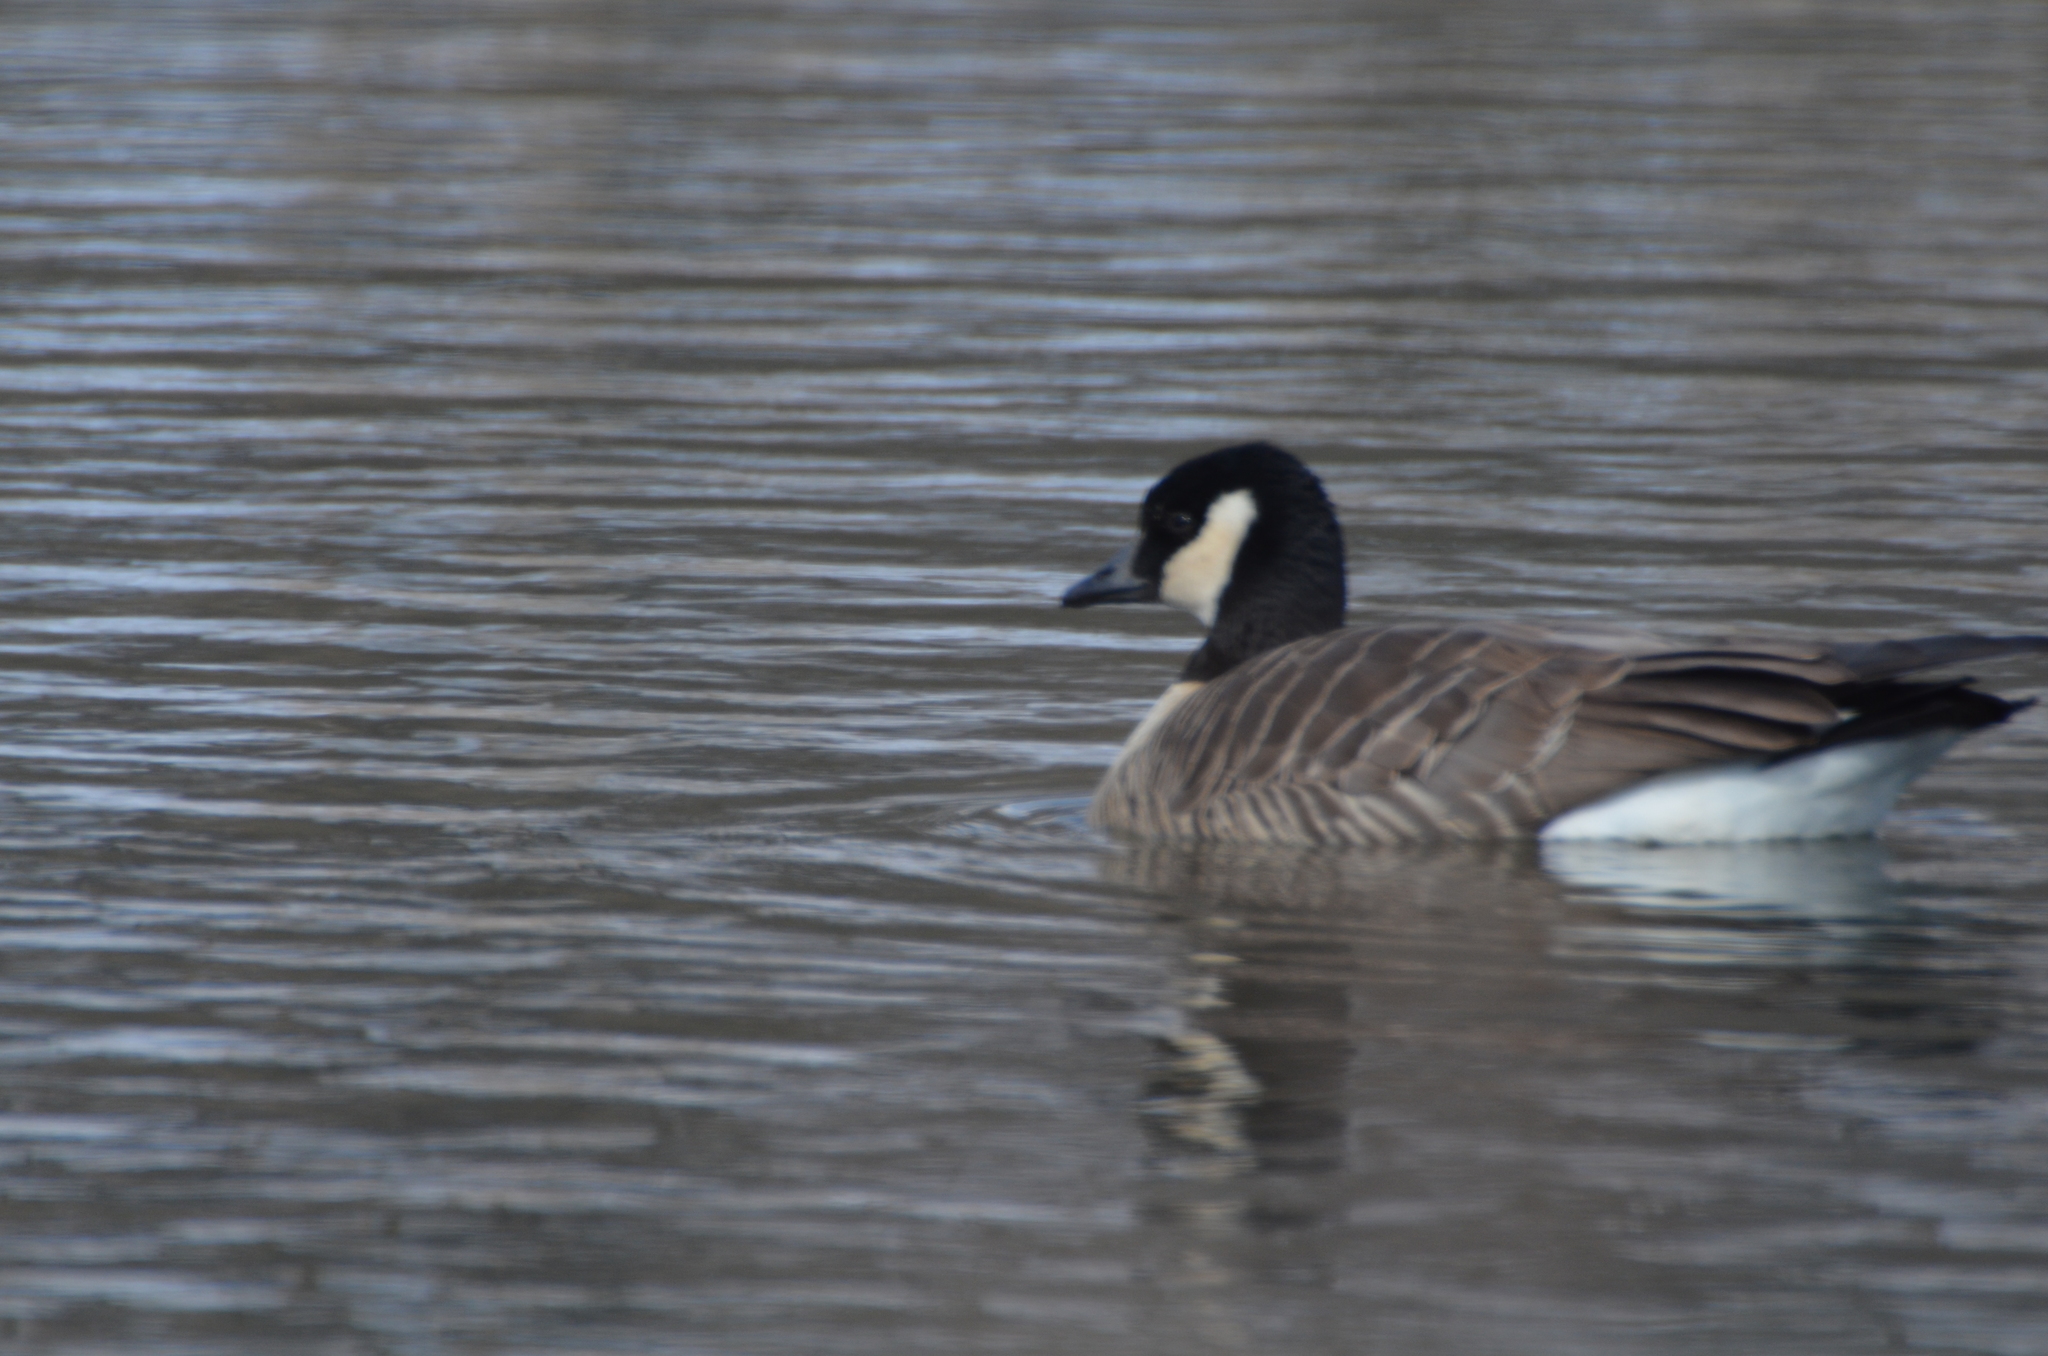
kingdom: Animalia
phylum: Chordata
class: Aves
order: Anseriformes
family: Anatidae
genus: Branta
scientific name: Branta hutchinsii
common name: Cackling goose
